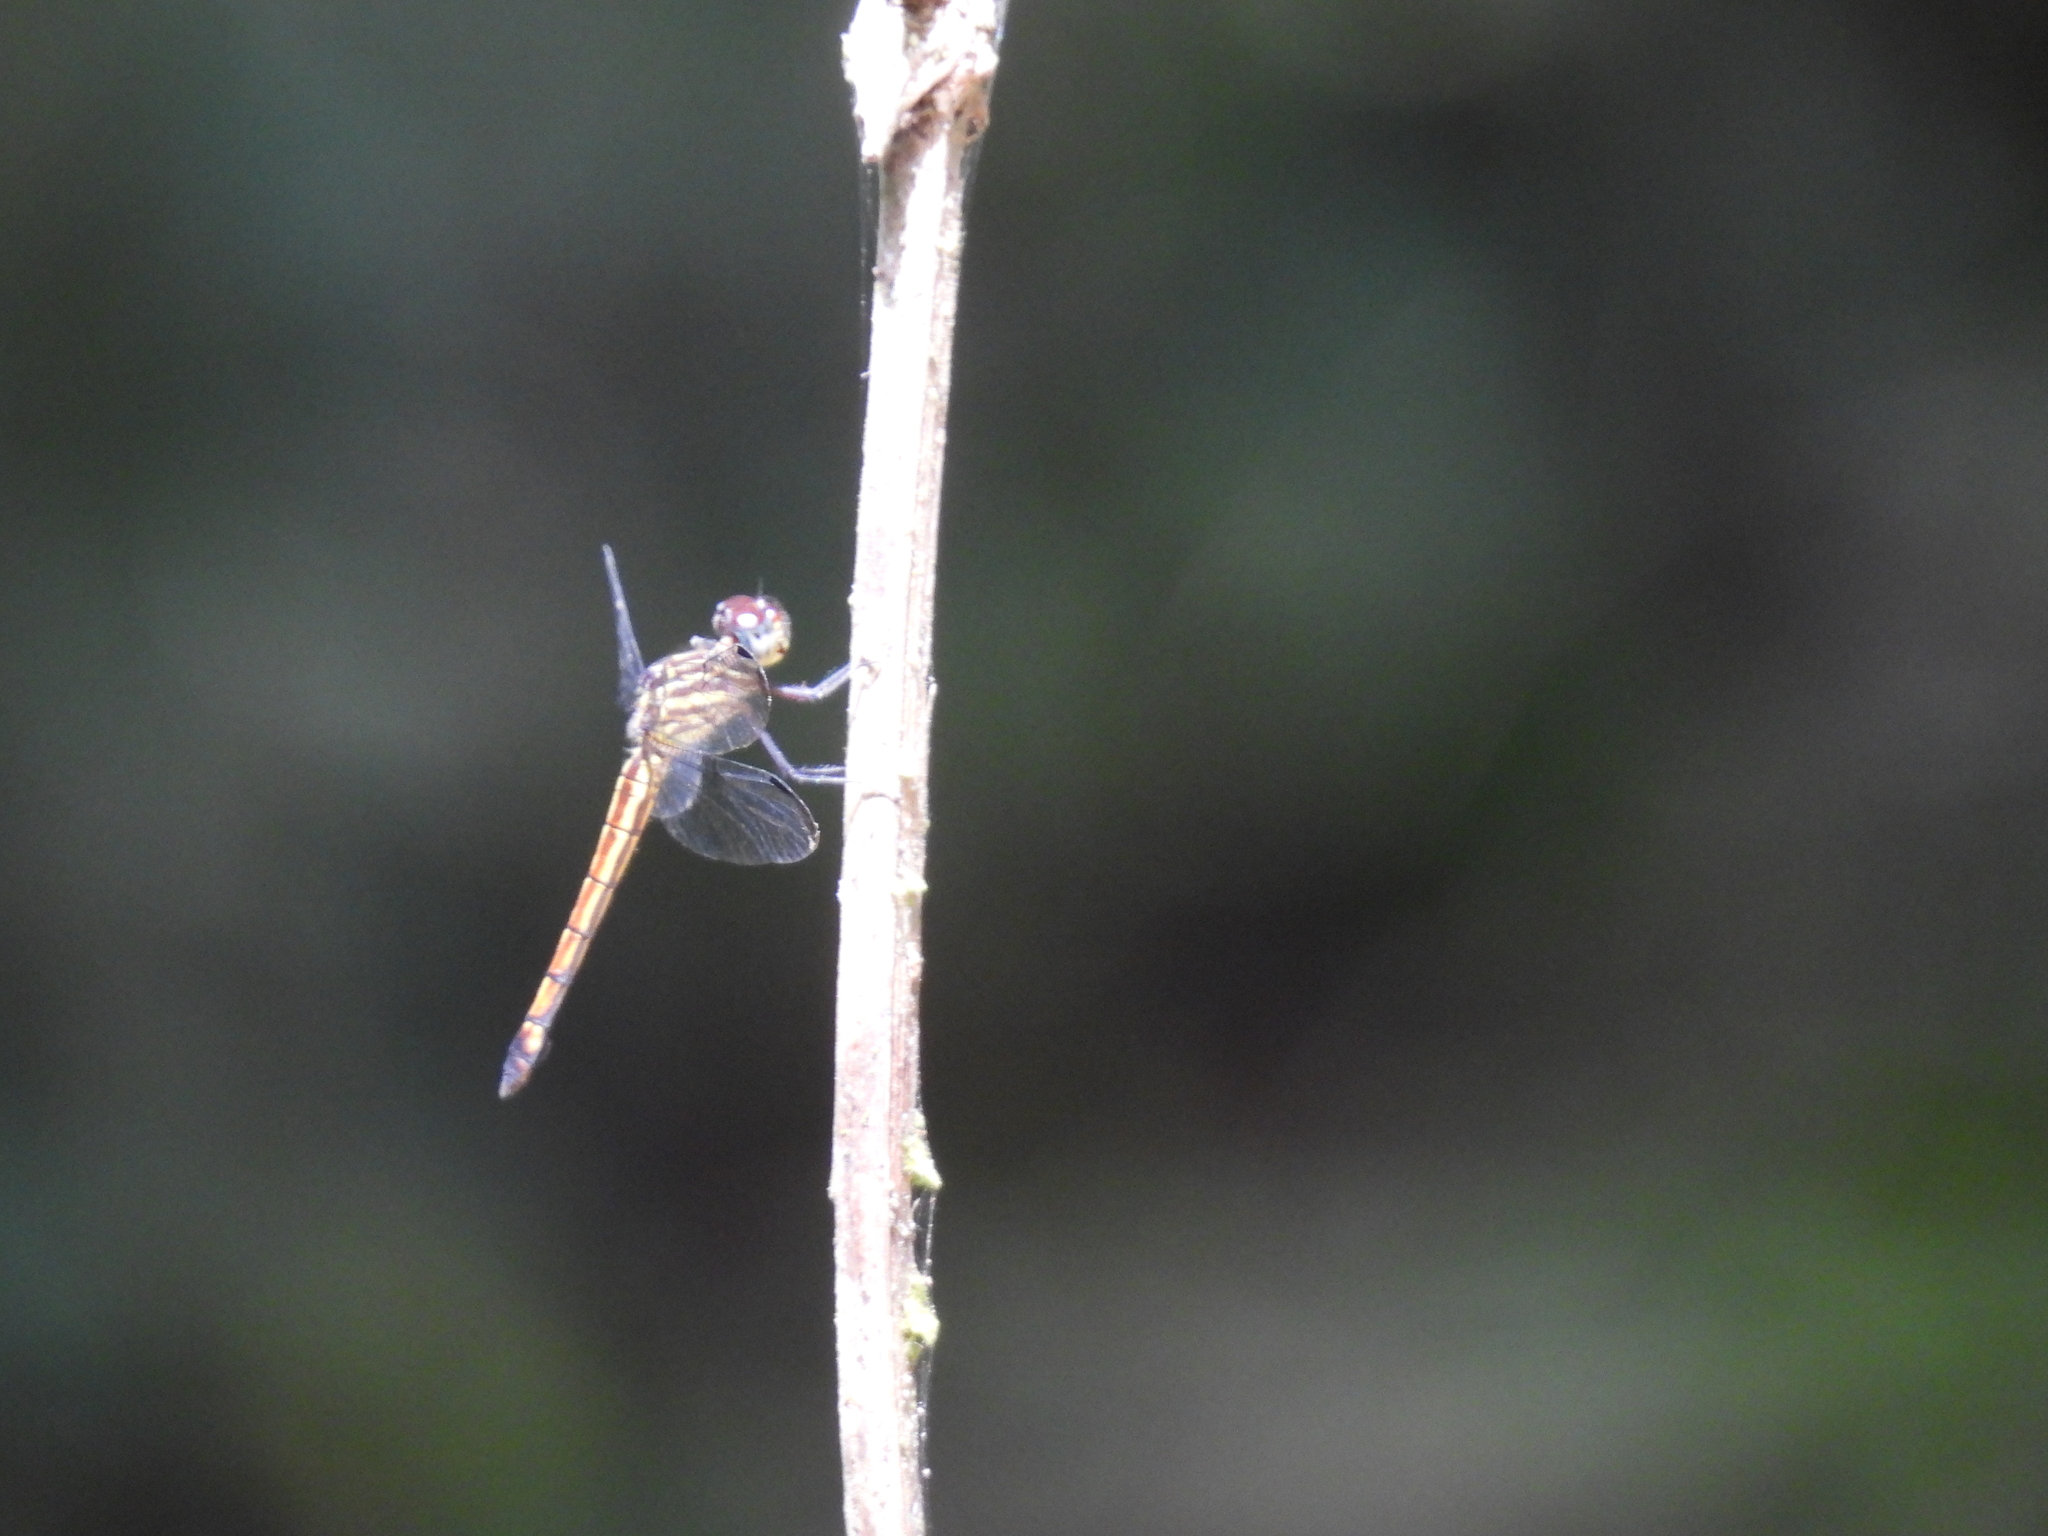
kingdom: Animalia
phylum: Arthropoda
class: Insecta
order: Odonata
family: Libellulidae
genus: Orthemis
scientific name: Orthemis schmidti
